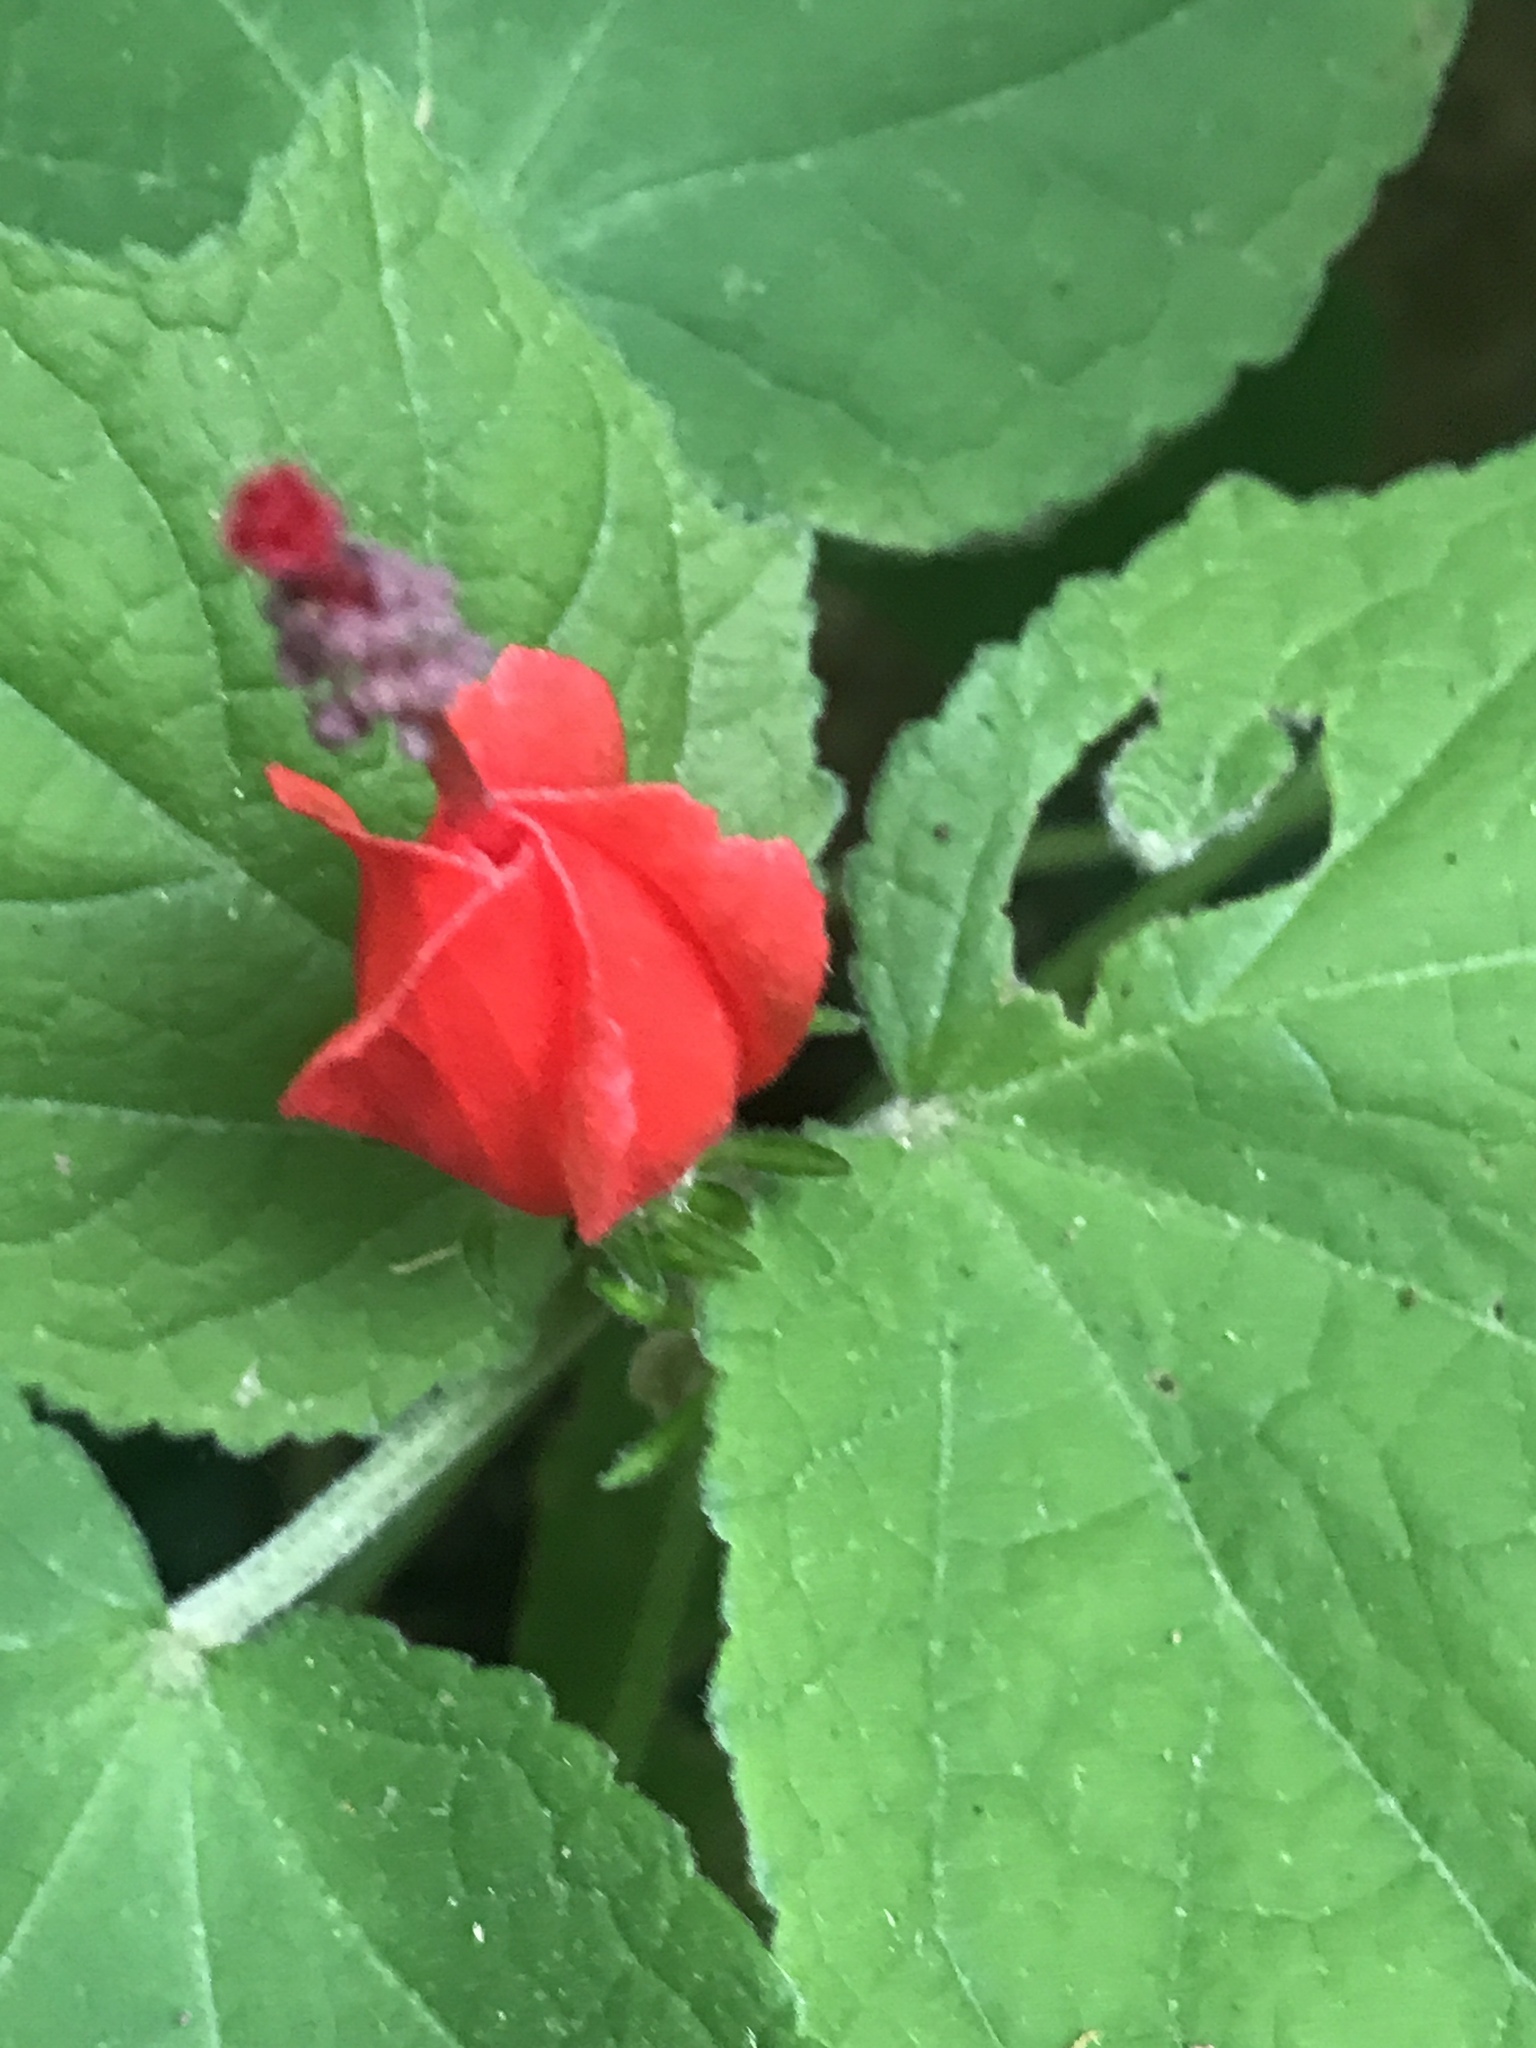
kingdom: Plantae
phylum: Tracheophyta
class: Magnoliopsida
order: Malvales
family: Malvaceae
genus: Malvaviscus
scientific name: Malvaviscus arboreus
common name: Wax mallow
